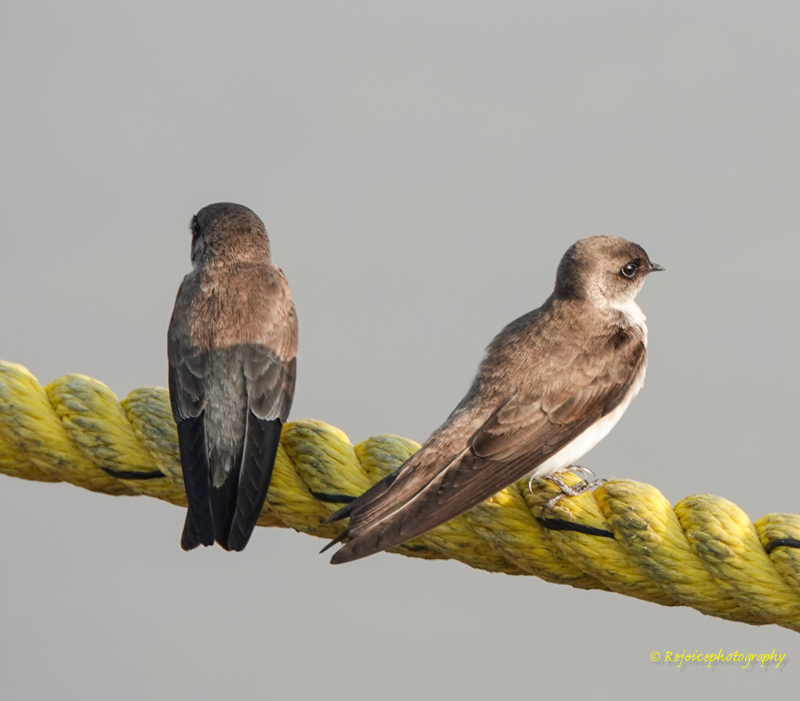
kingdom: Animalia
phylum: Chordata
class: Aves
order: Passeriformes
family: Hirundinidae
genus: Riparia
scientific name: Riparia riparia
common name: Sand martin
